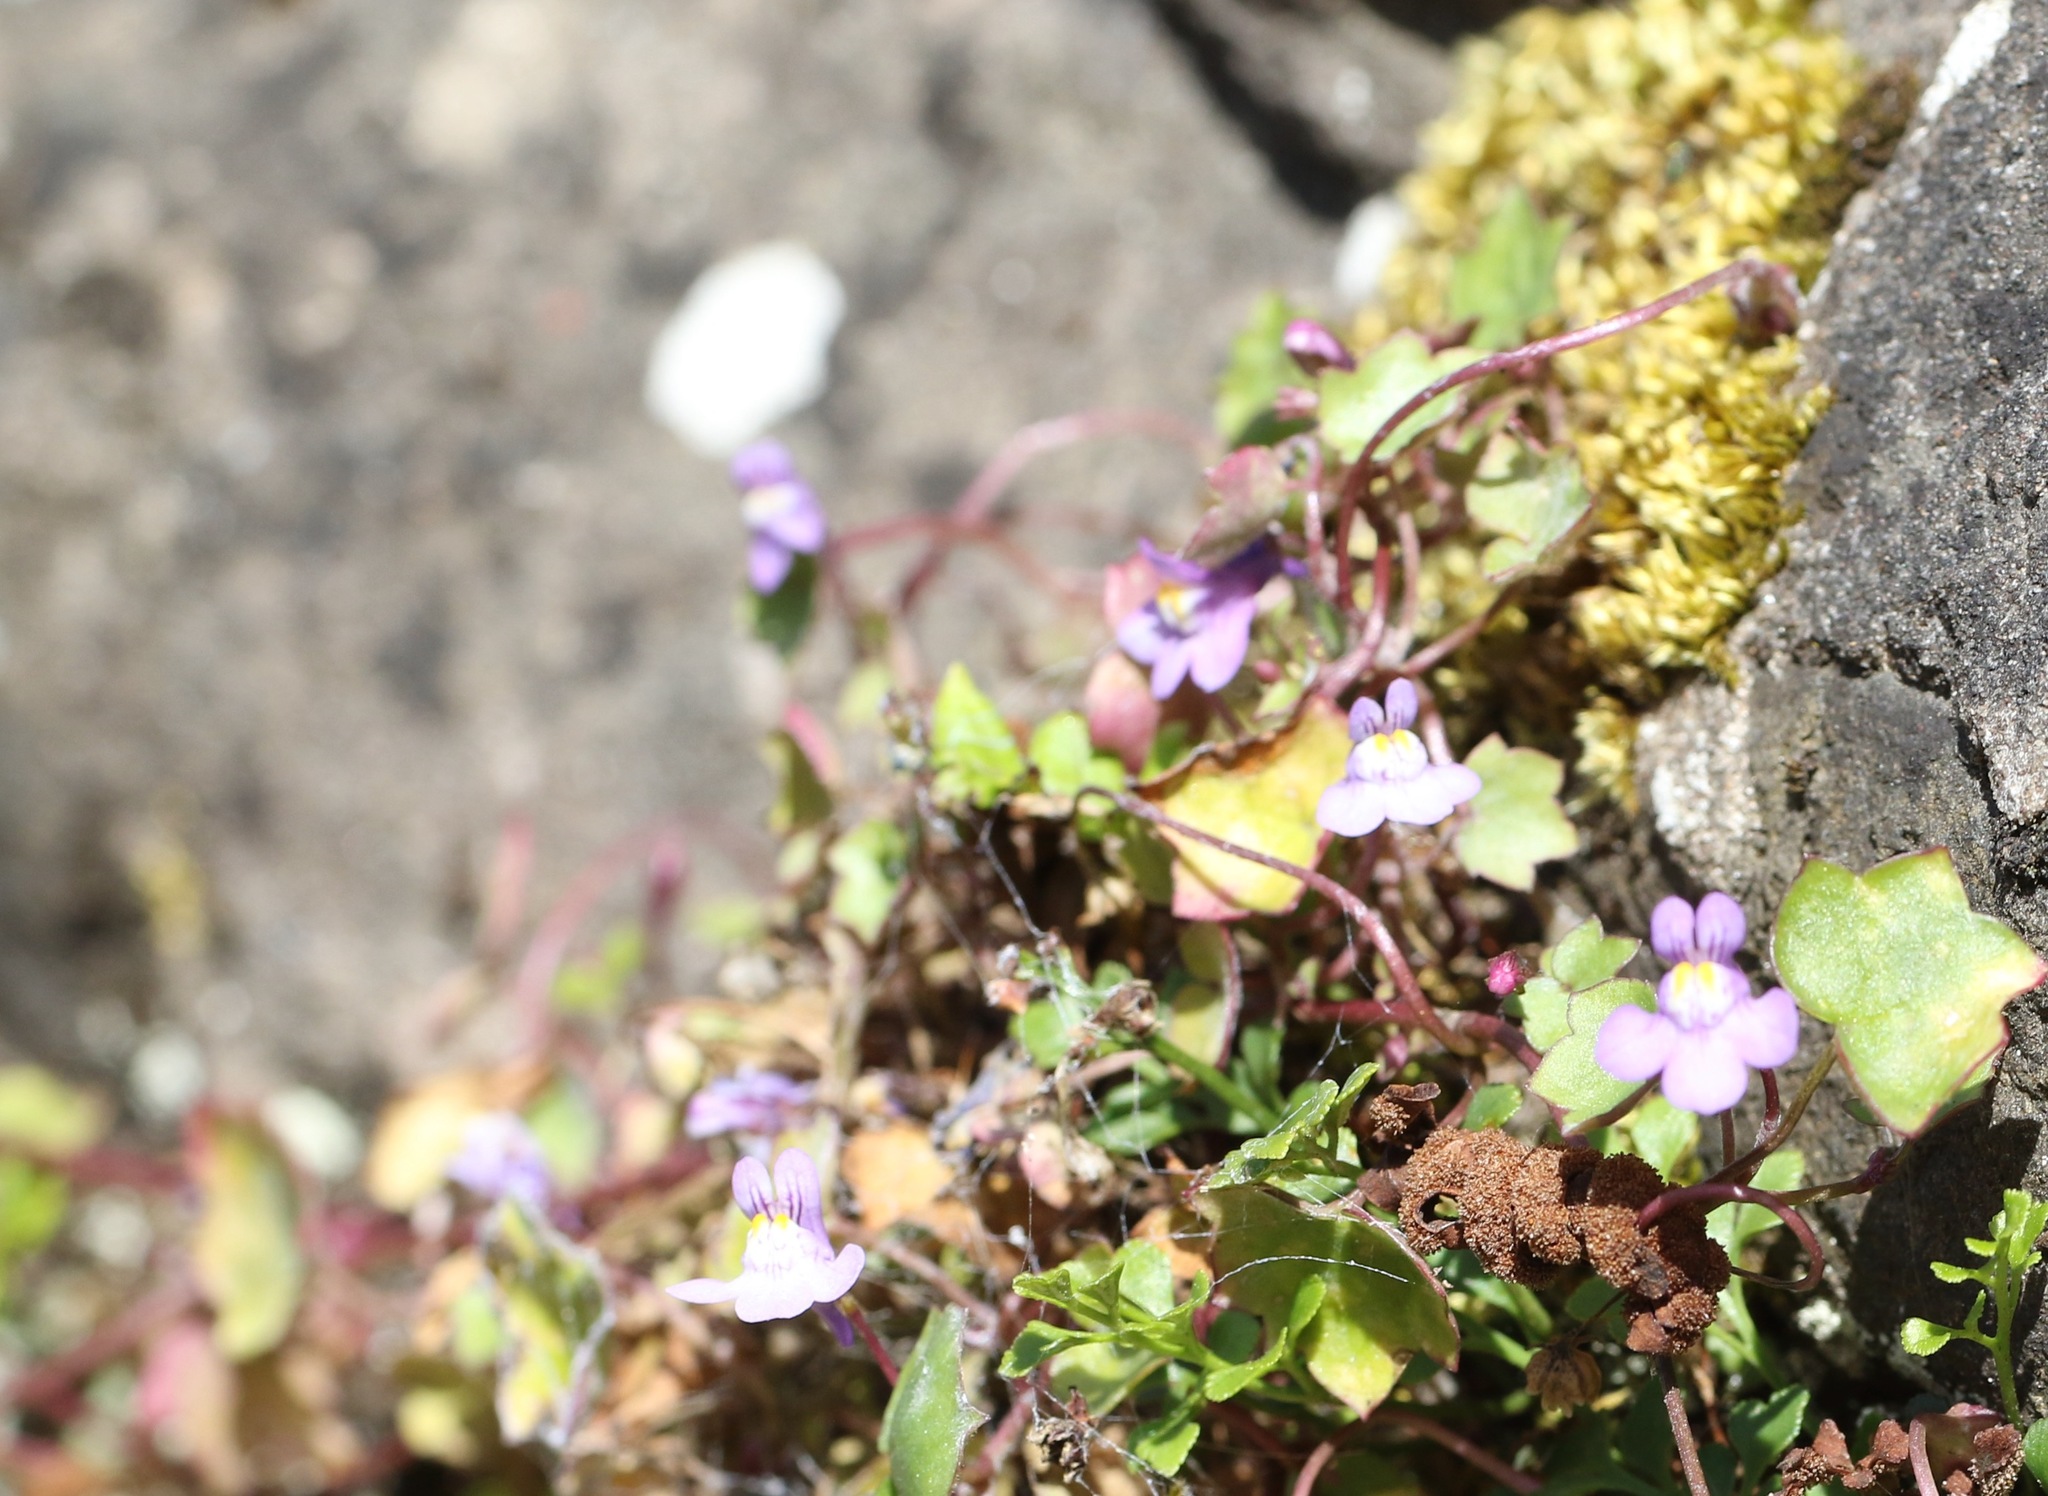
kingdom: Plantae
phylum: Tracheophyta
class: Magnoliopsida
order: Lamiales
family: Plantaginaceae
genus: Cymbalaria
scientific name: Cymbalaria muralis
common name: Ivy-leaved toadflax
